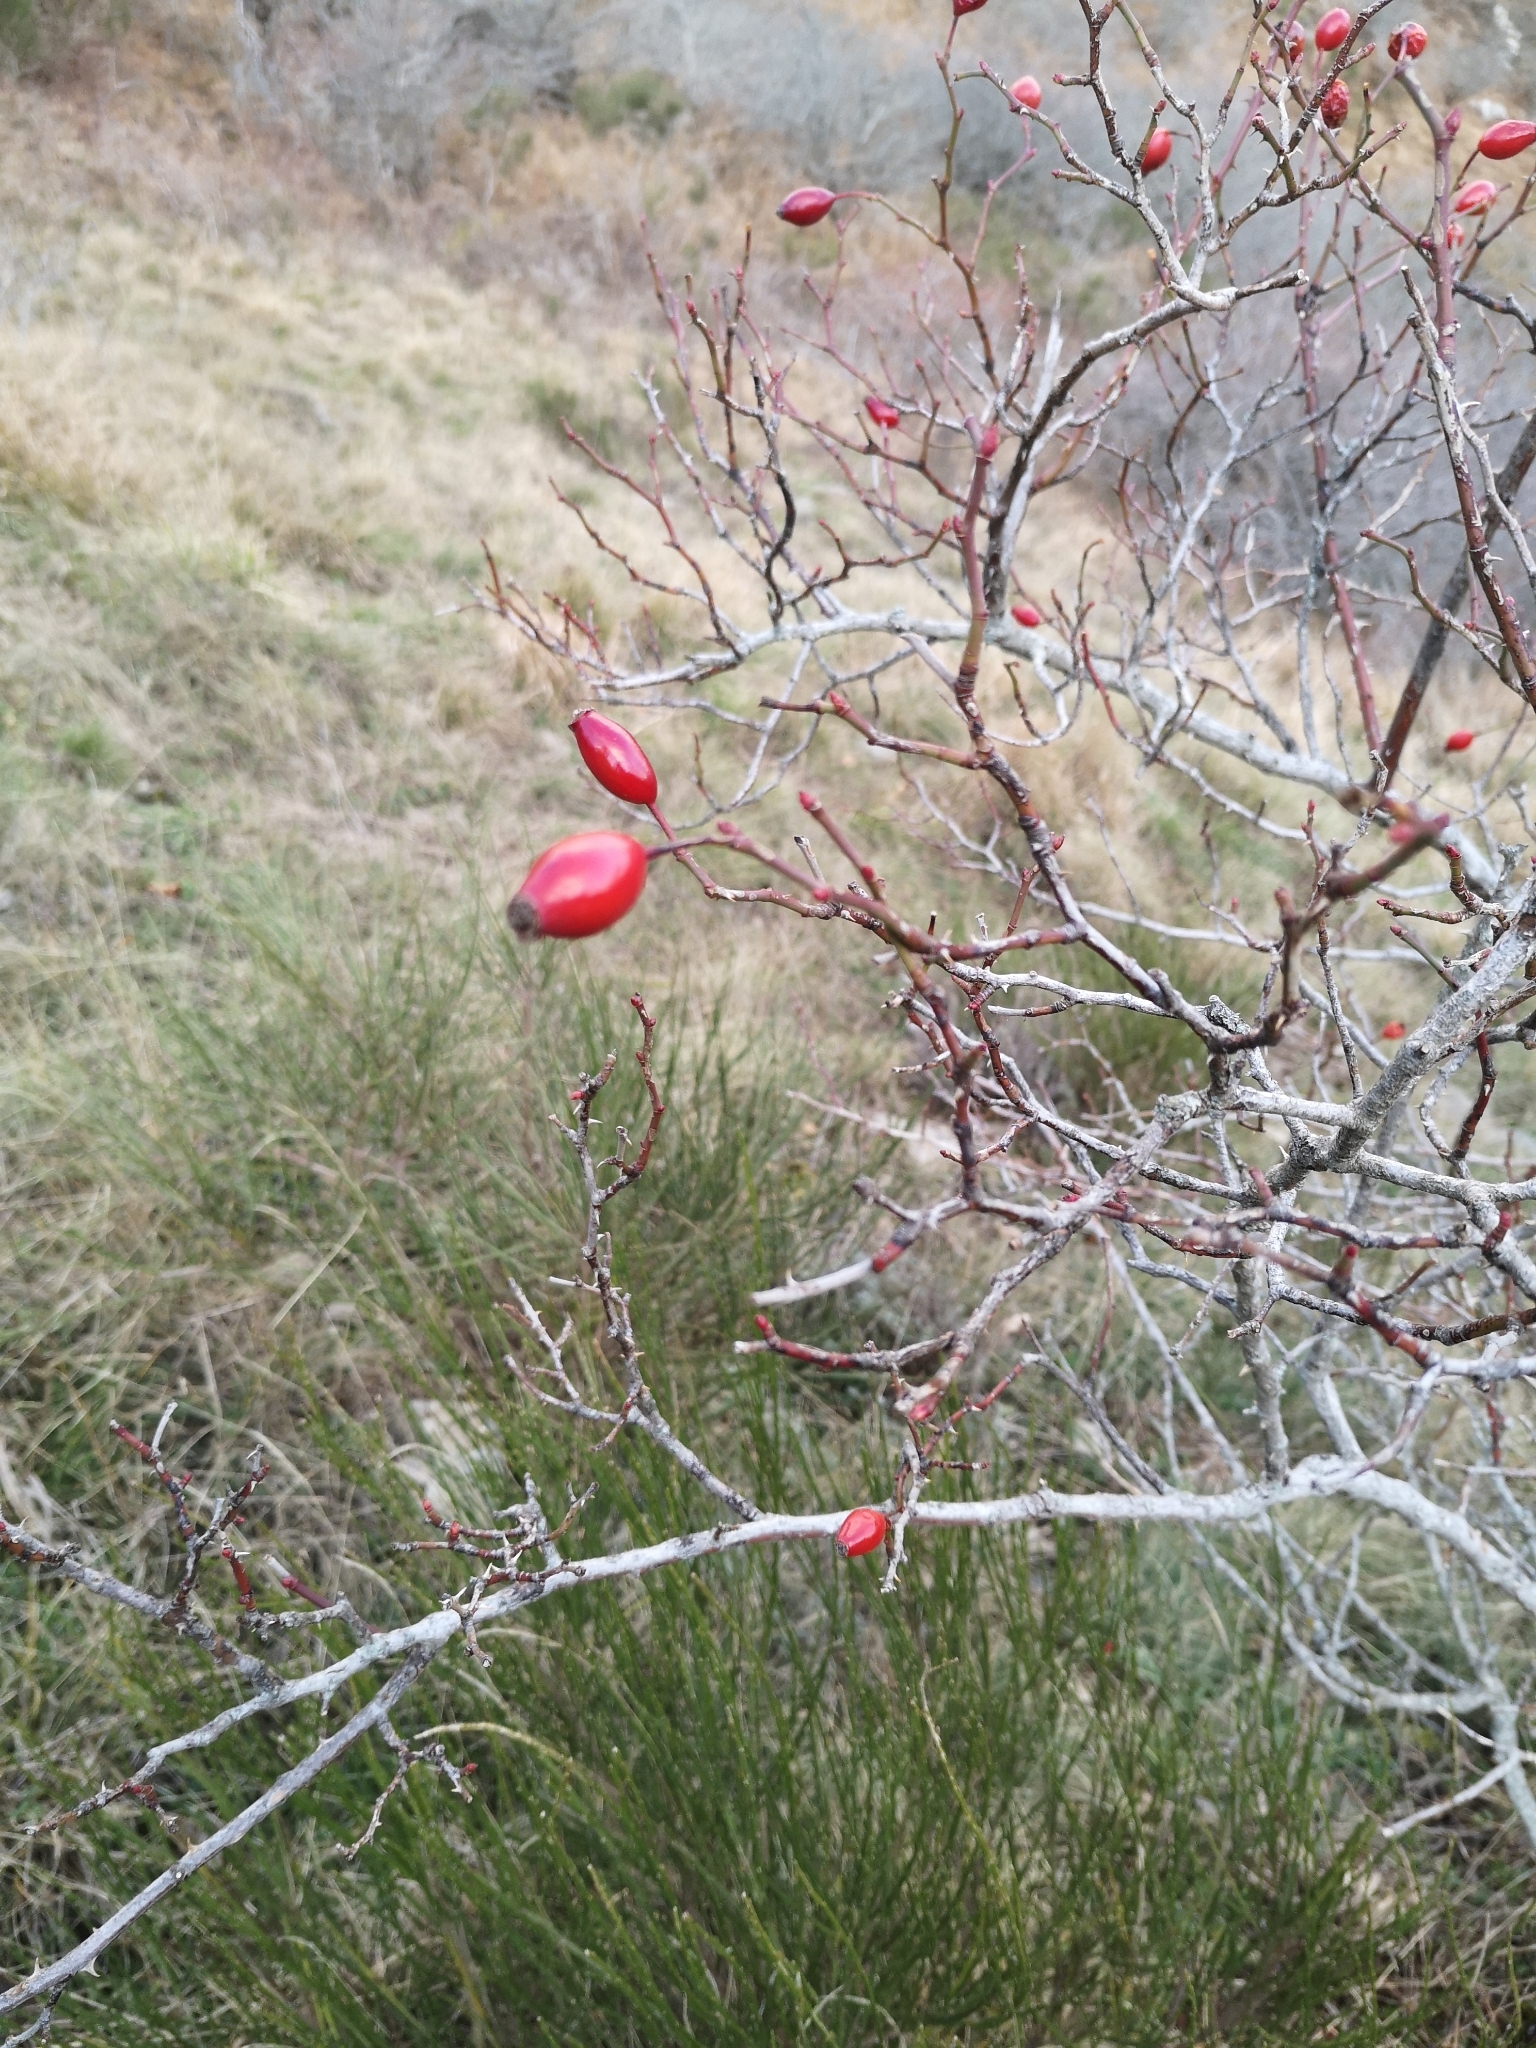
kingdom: Plantae
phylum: Tracheophyta
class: Magnoliopsida
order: Rosales
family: Rosaceae
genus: Rosa
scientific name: Rosa canina
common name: Dog rose
